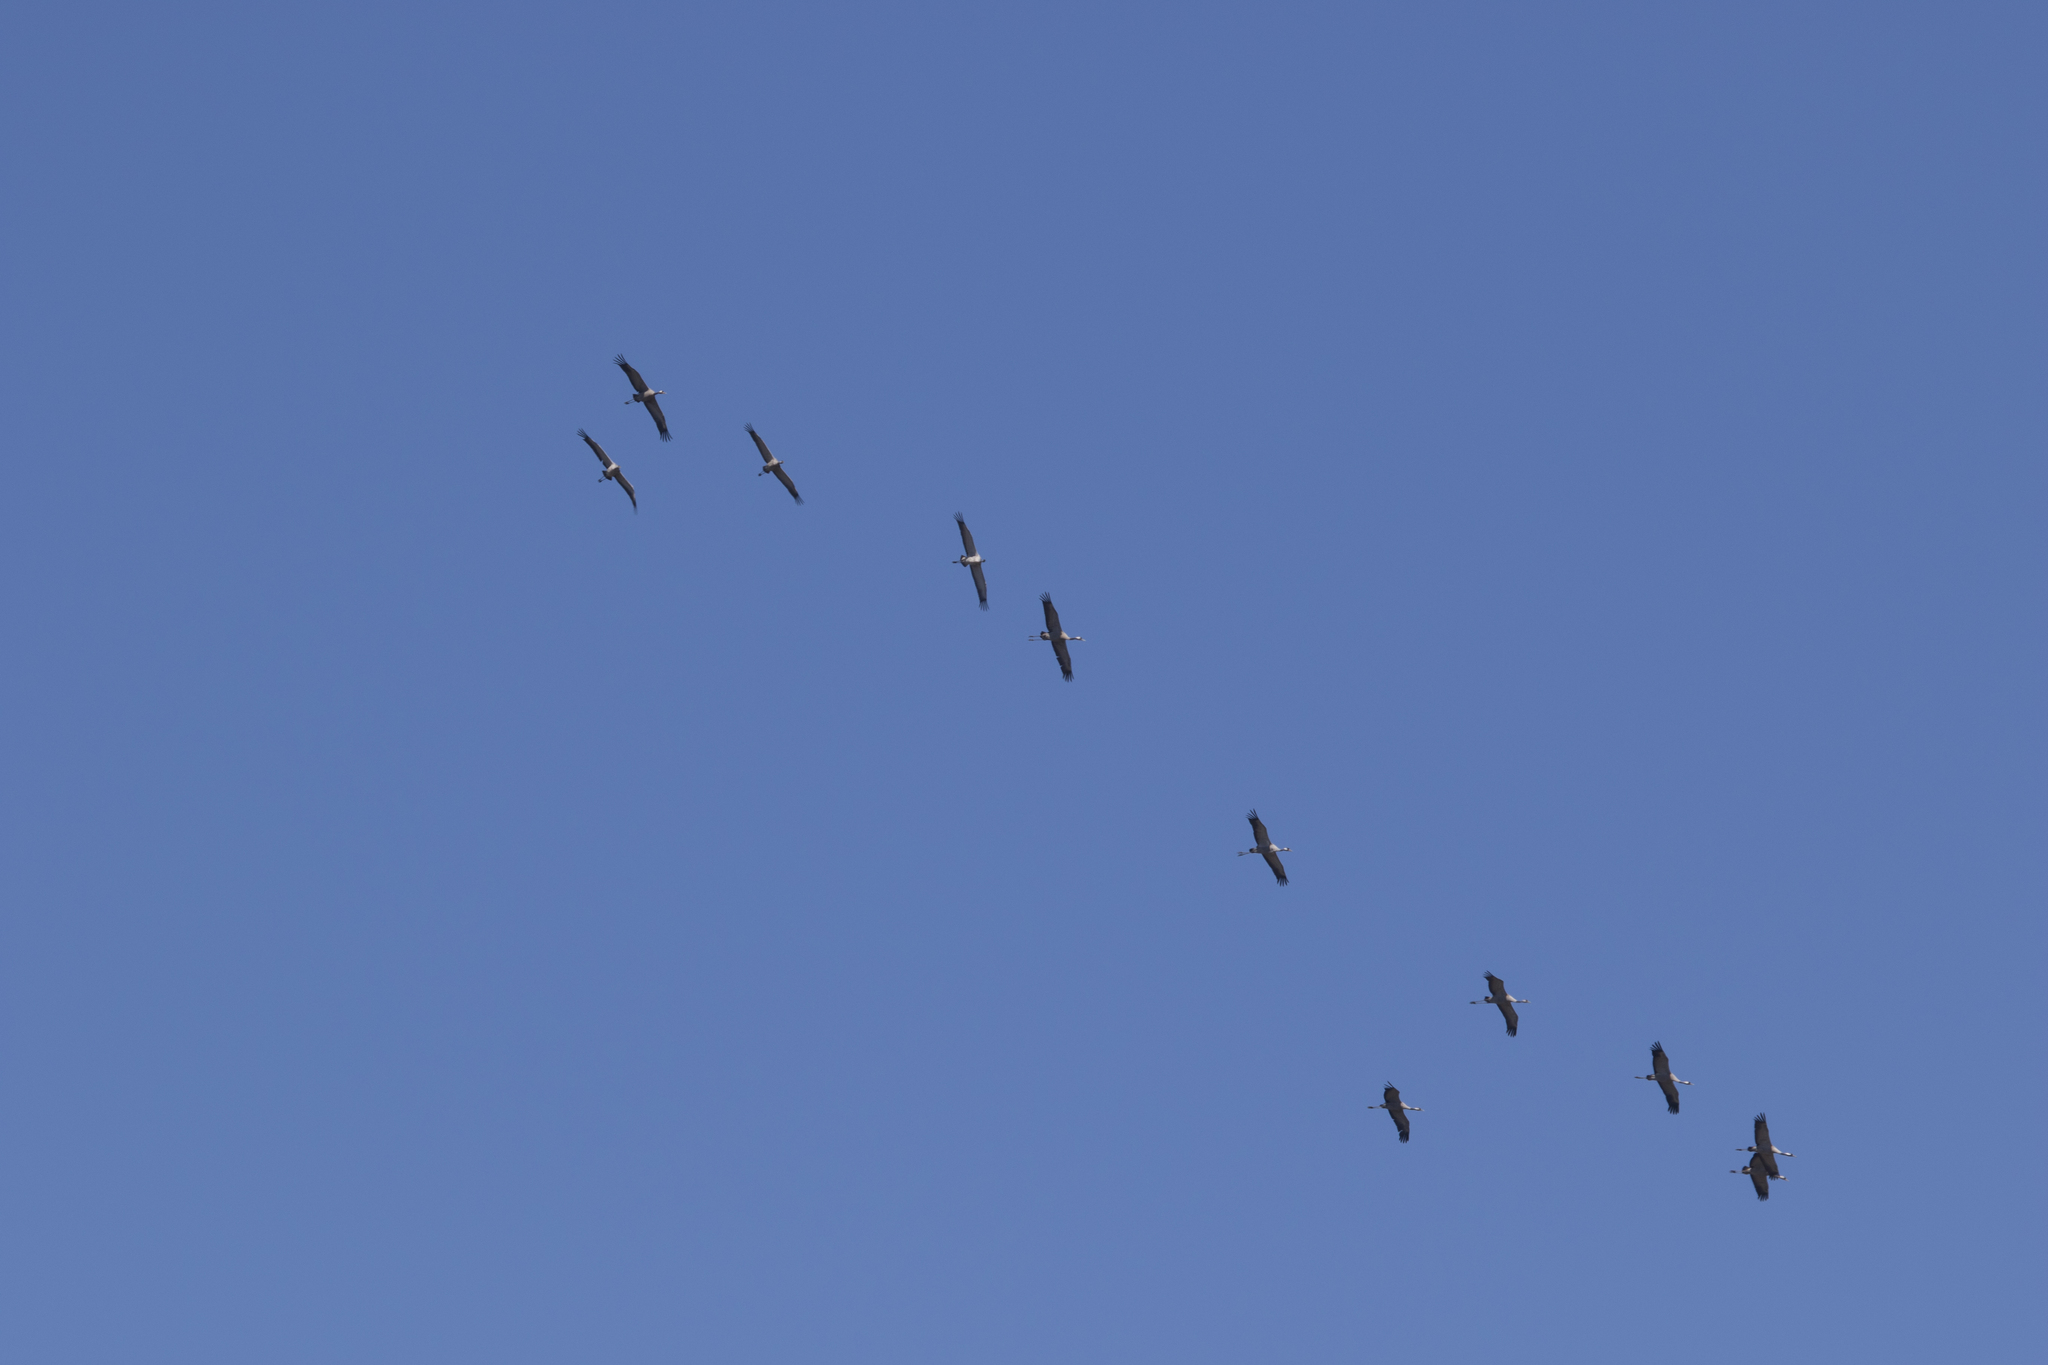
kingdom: Animalia
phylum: Chordata
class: Aves
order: Gruiformes
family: Gruidae
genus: Grus
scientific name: Grus grus
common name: Common crane
